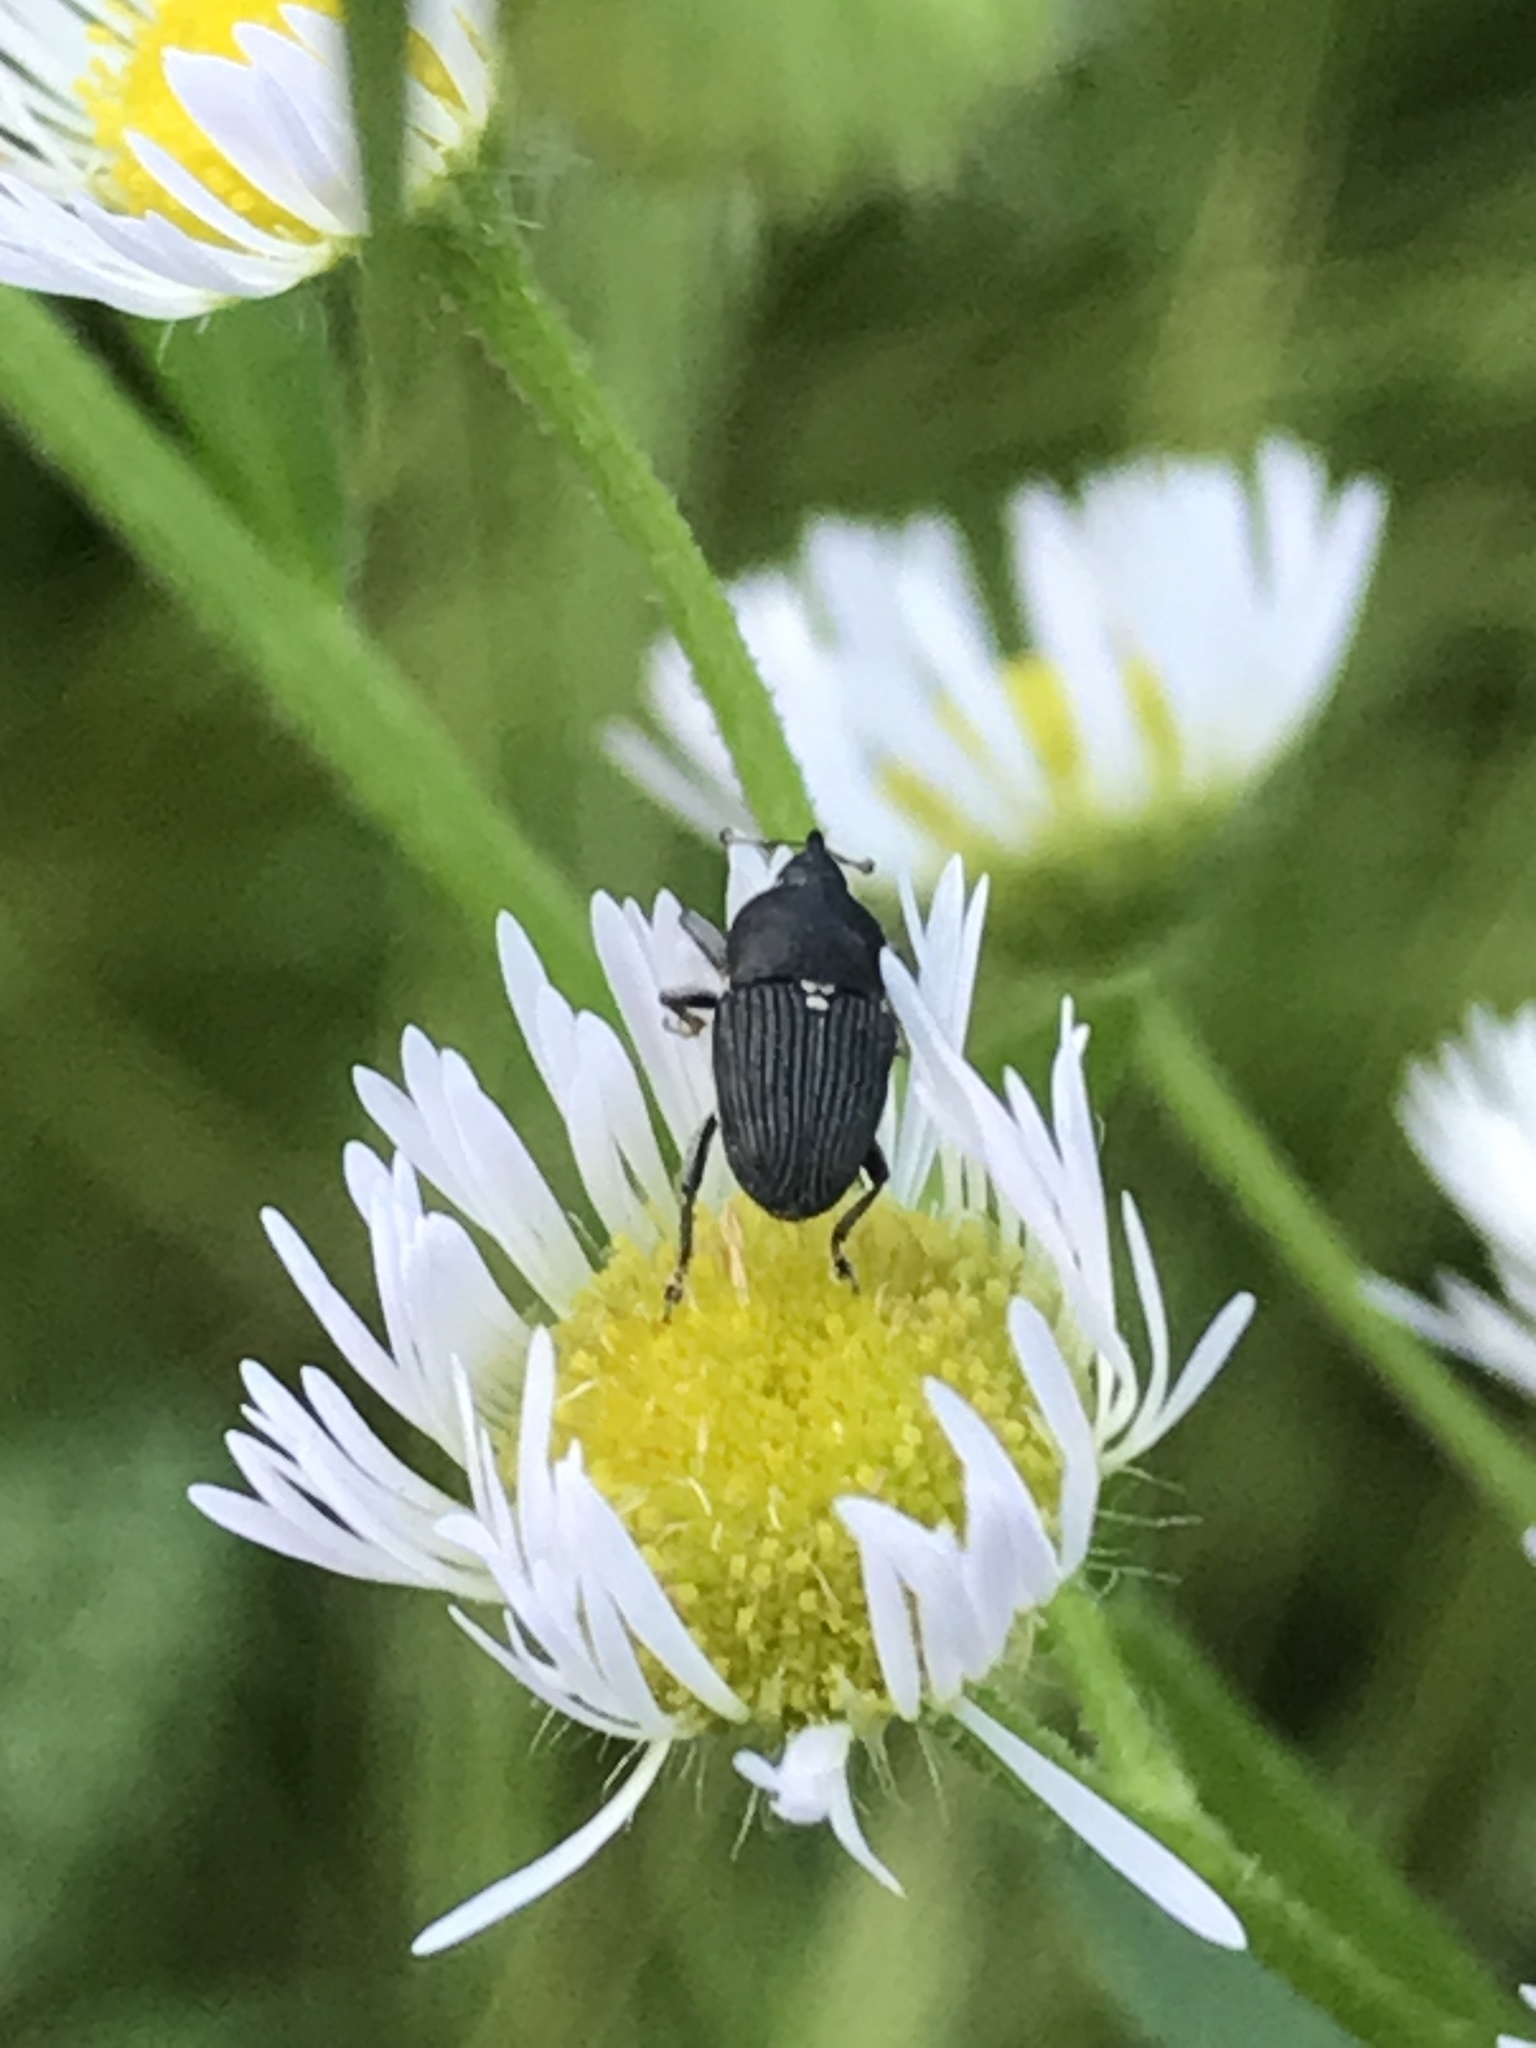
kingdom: Animalia
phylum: Arthropoda
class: Insecta
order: Coleoptera
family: Curculionidae
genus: Odontocorynus
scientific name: Odontocorynus salebrosus
